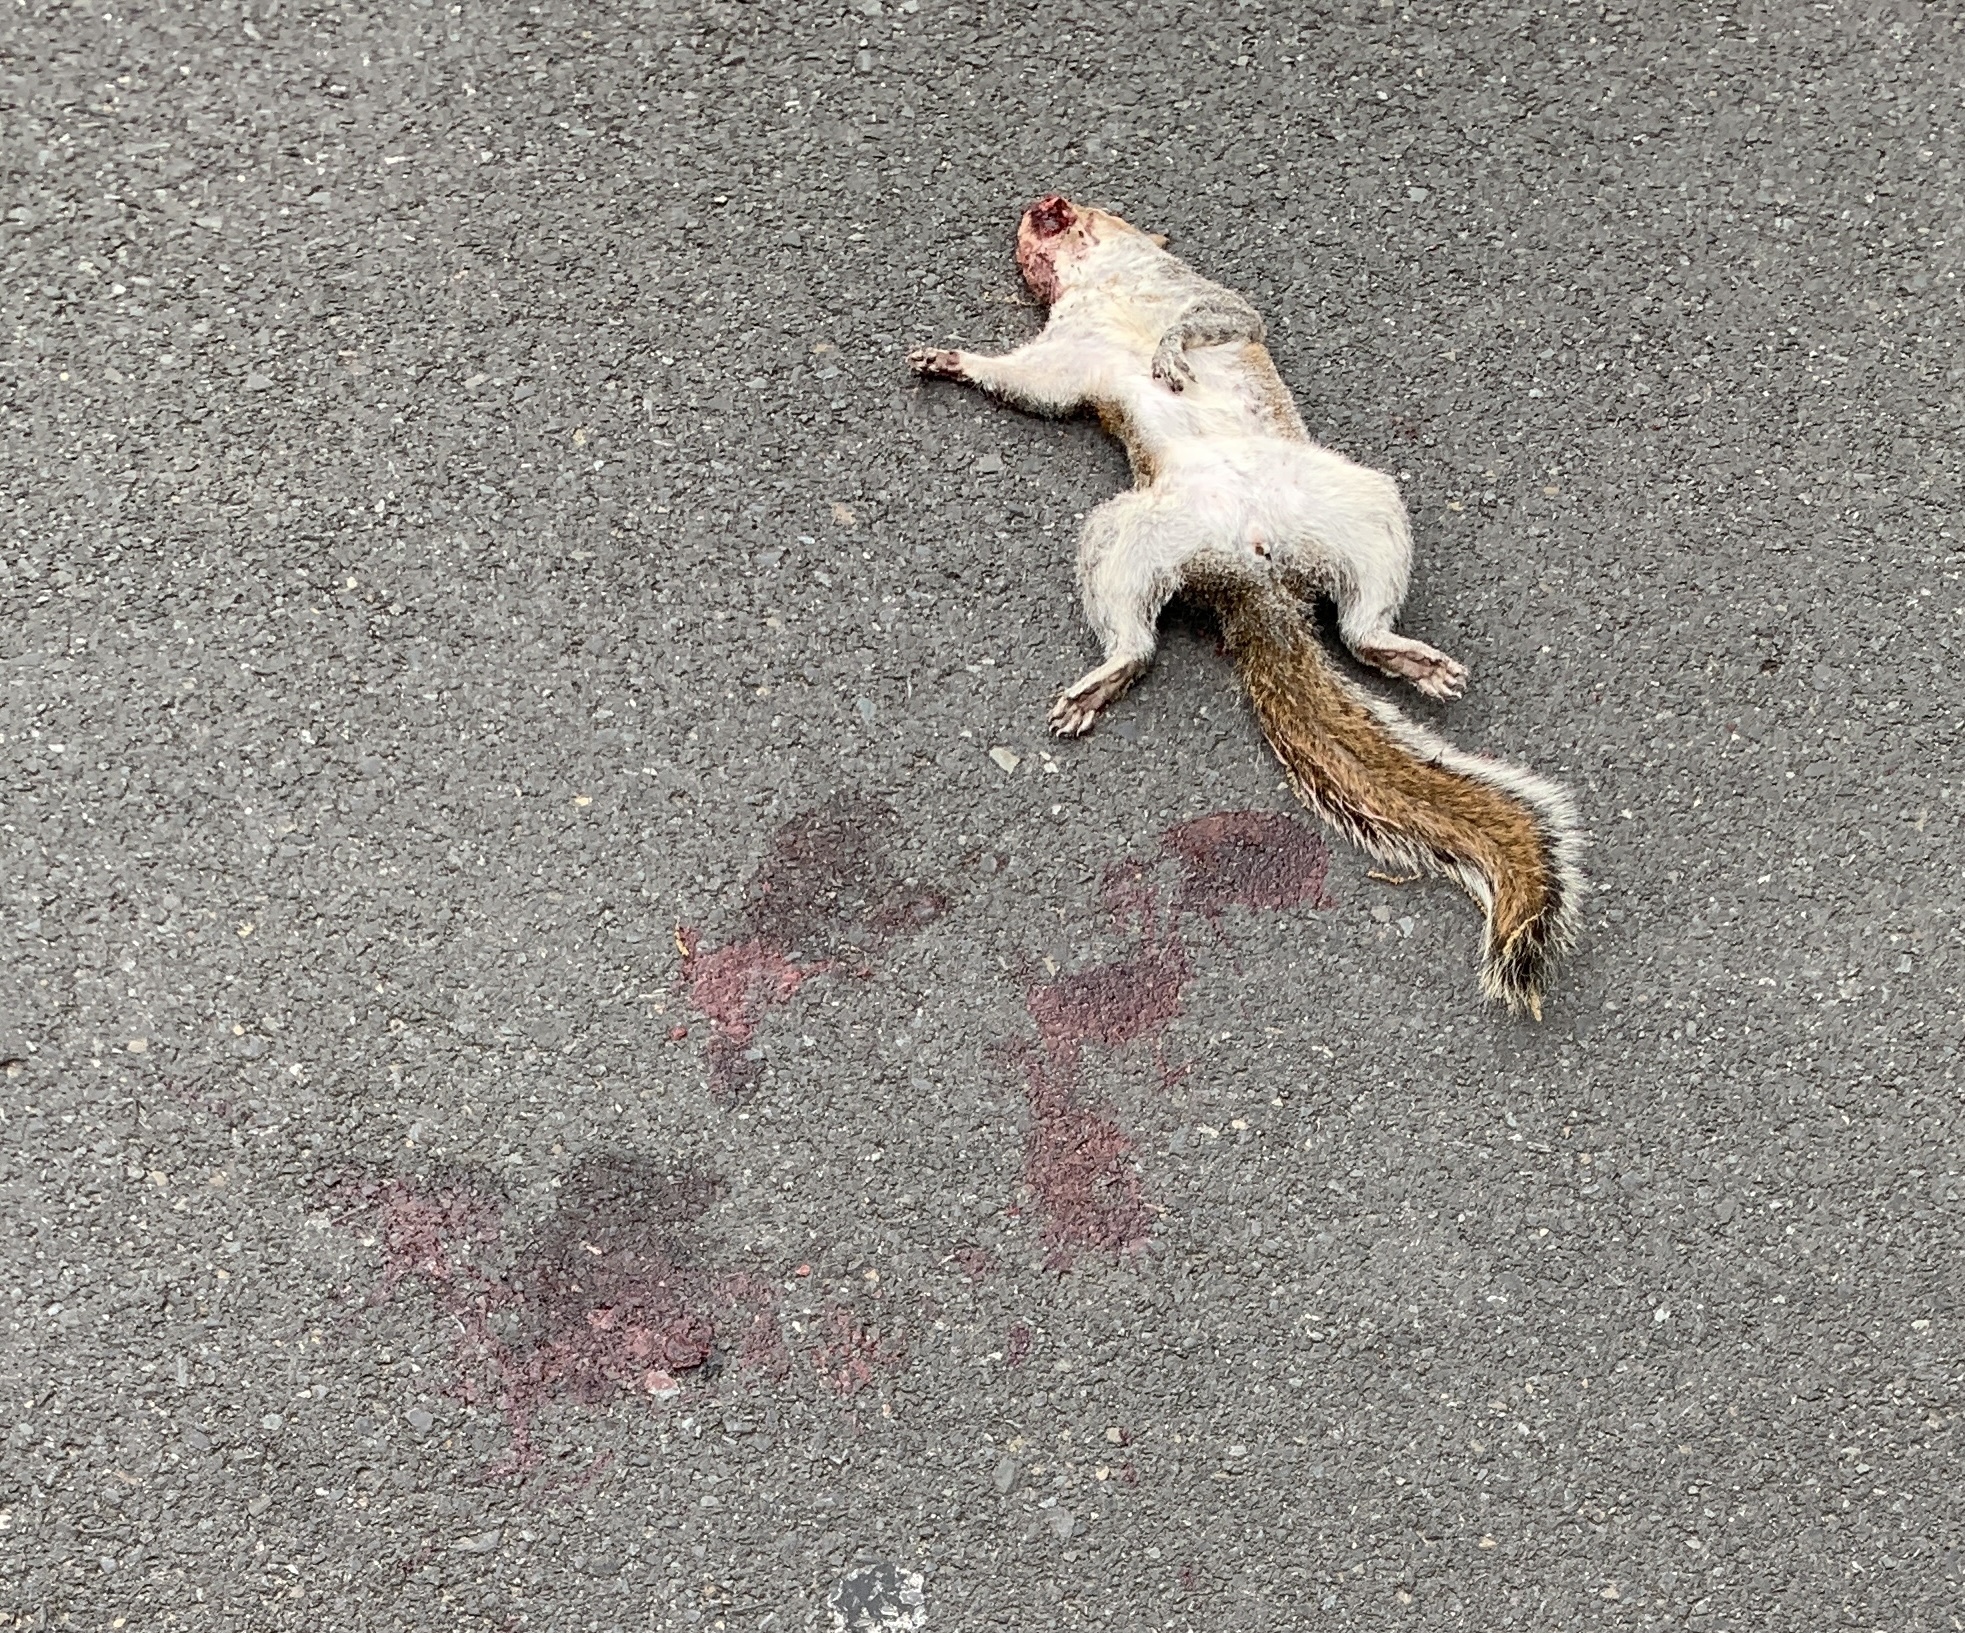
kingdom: Animalia
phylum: Chordata
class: Mammalia
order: Rodentia
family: Sciuridae
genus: Sciurus
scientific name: Sciurus carolinensis
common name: Eastern gray squirrel
